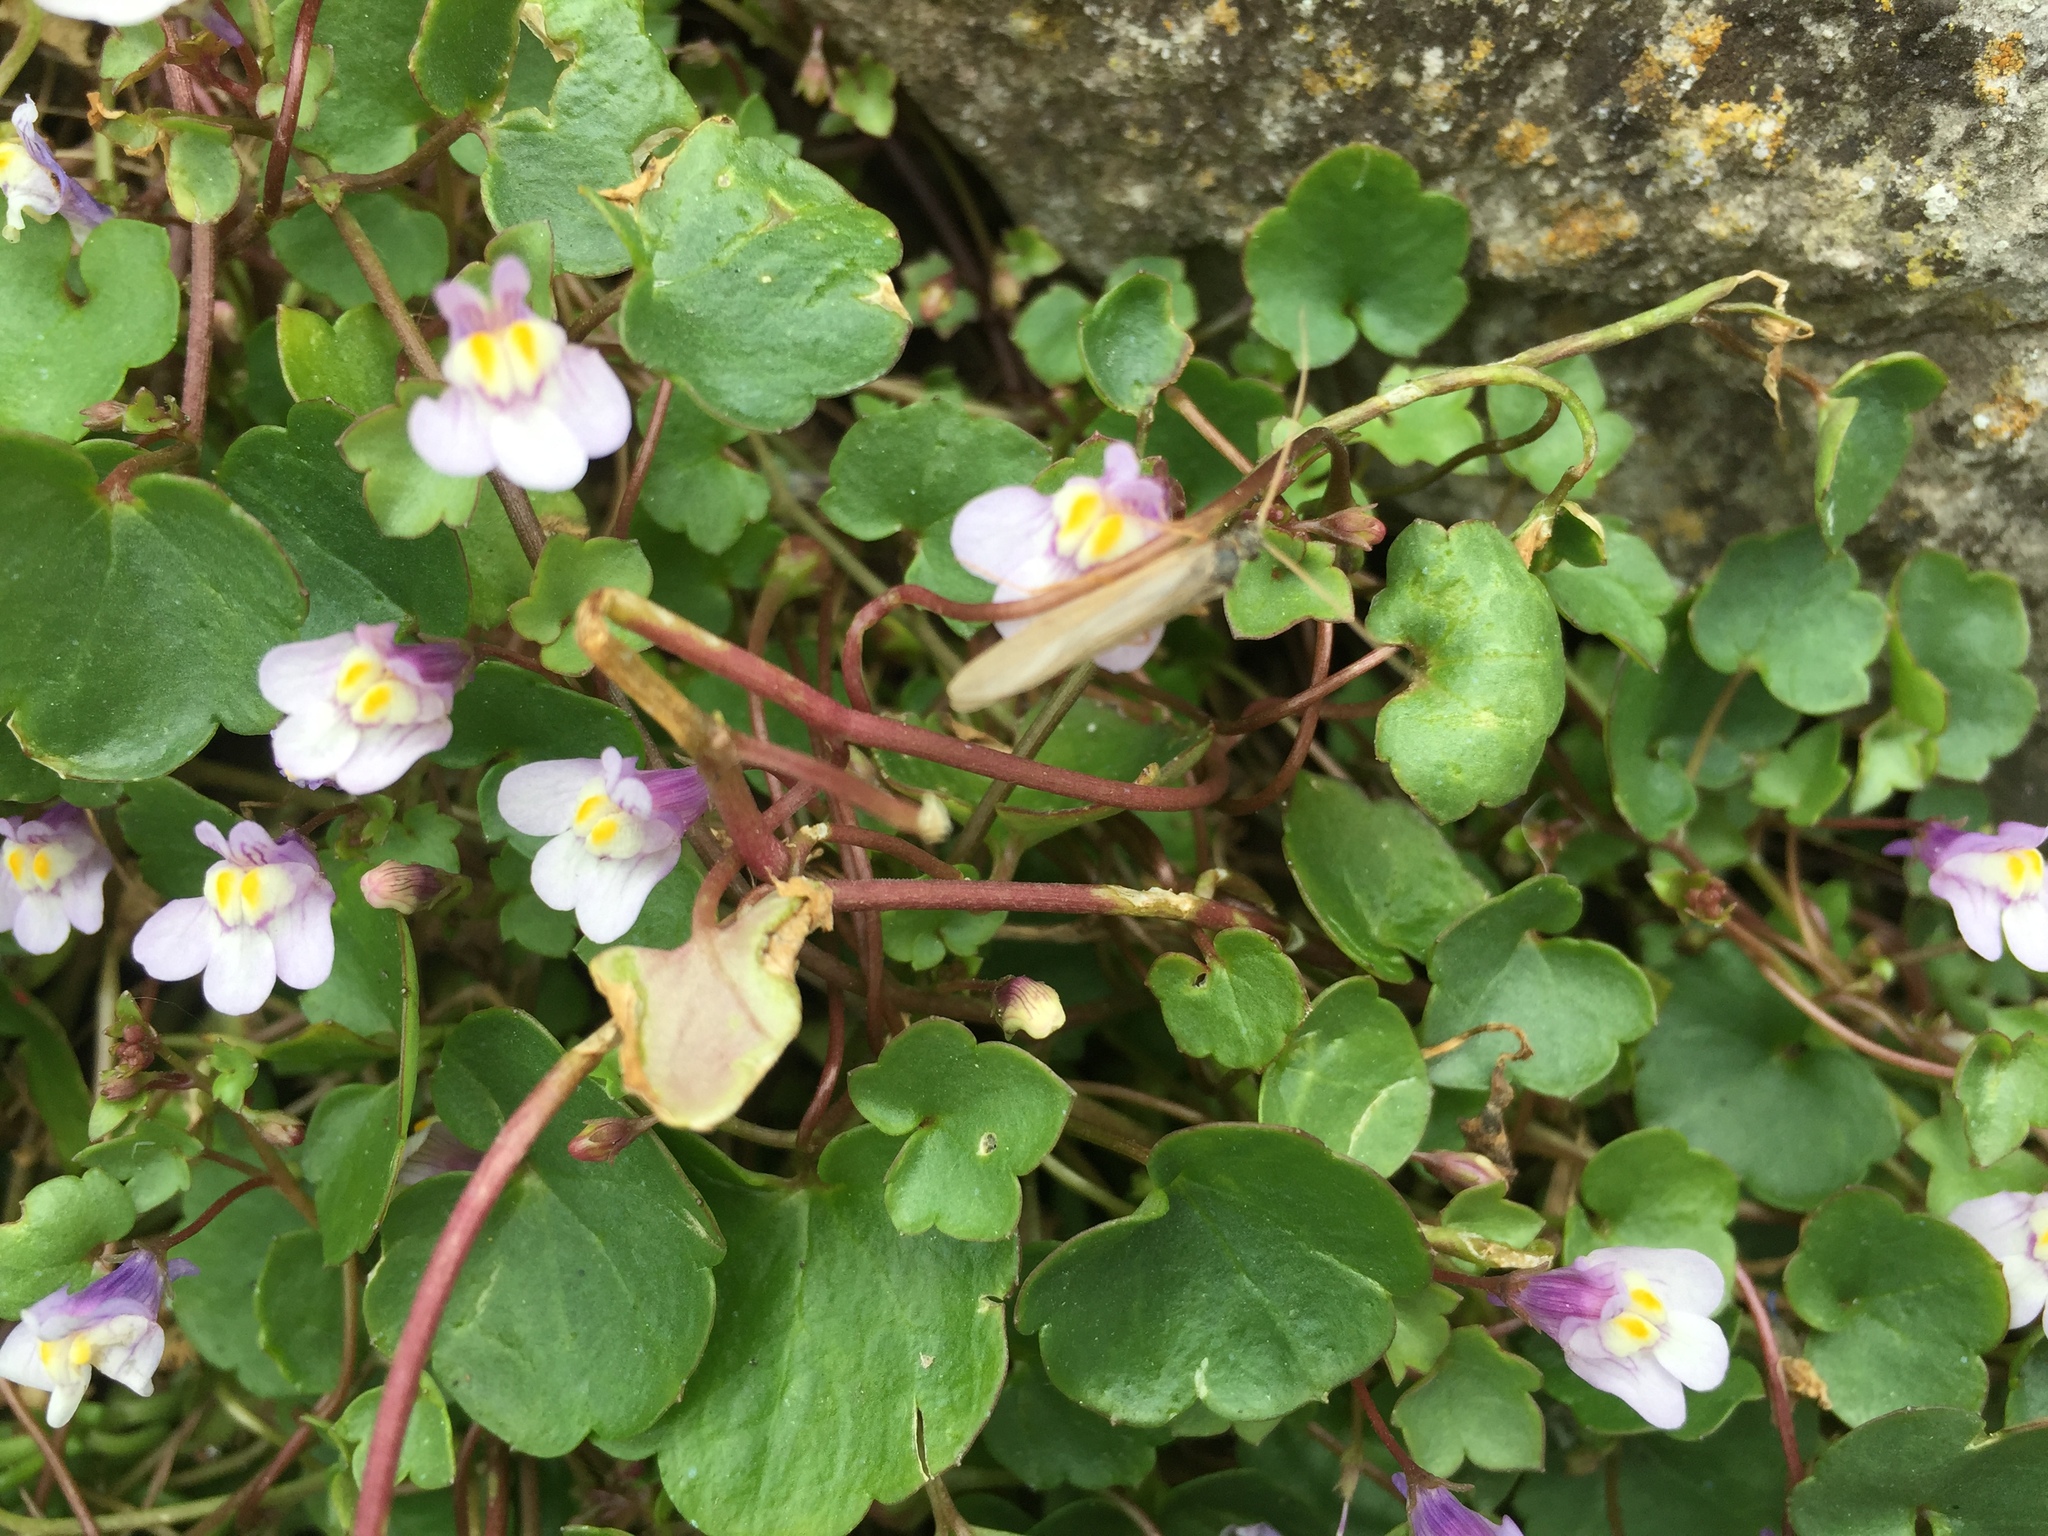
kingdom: Plantae
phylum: Tracheophyta
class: Magnoliopsida
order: Lamiales
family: Plantaginaceae
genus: Cymbalaria
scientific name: Cymbalaria muralis
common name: Ivy-leaved toadflax
